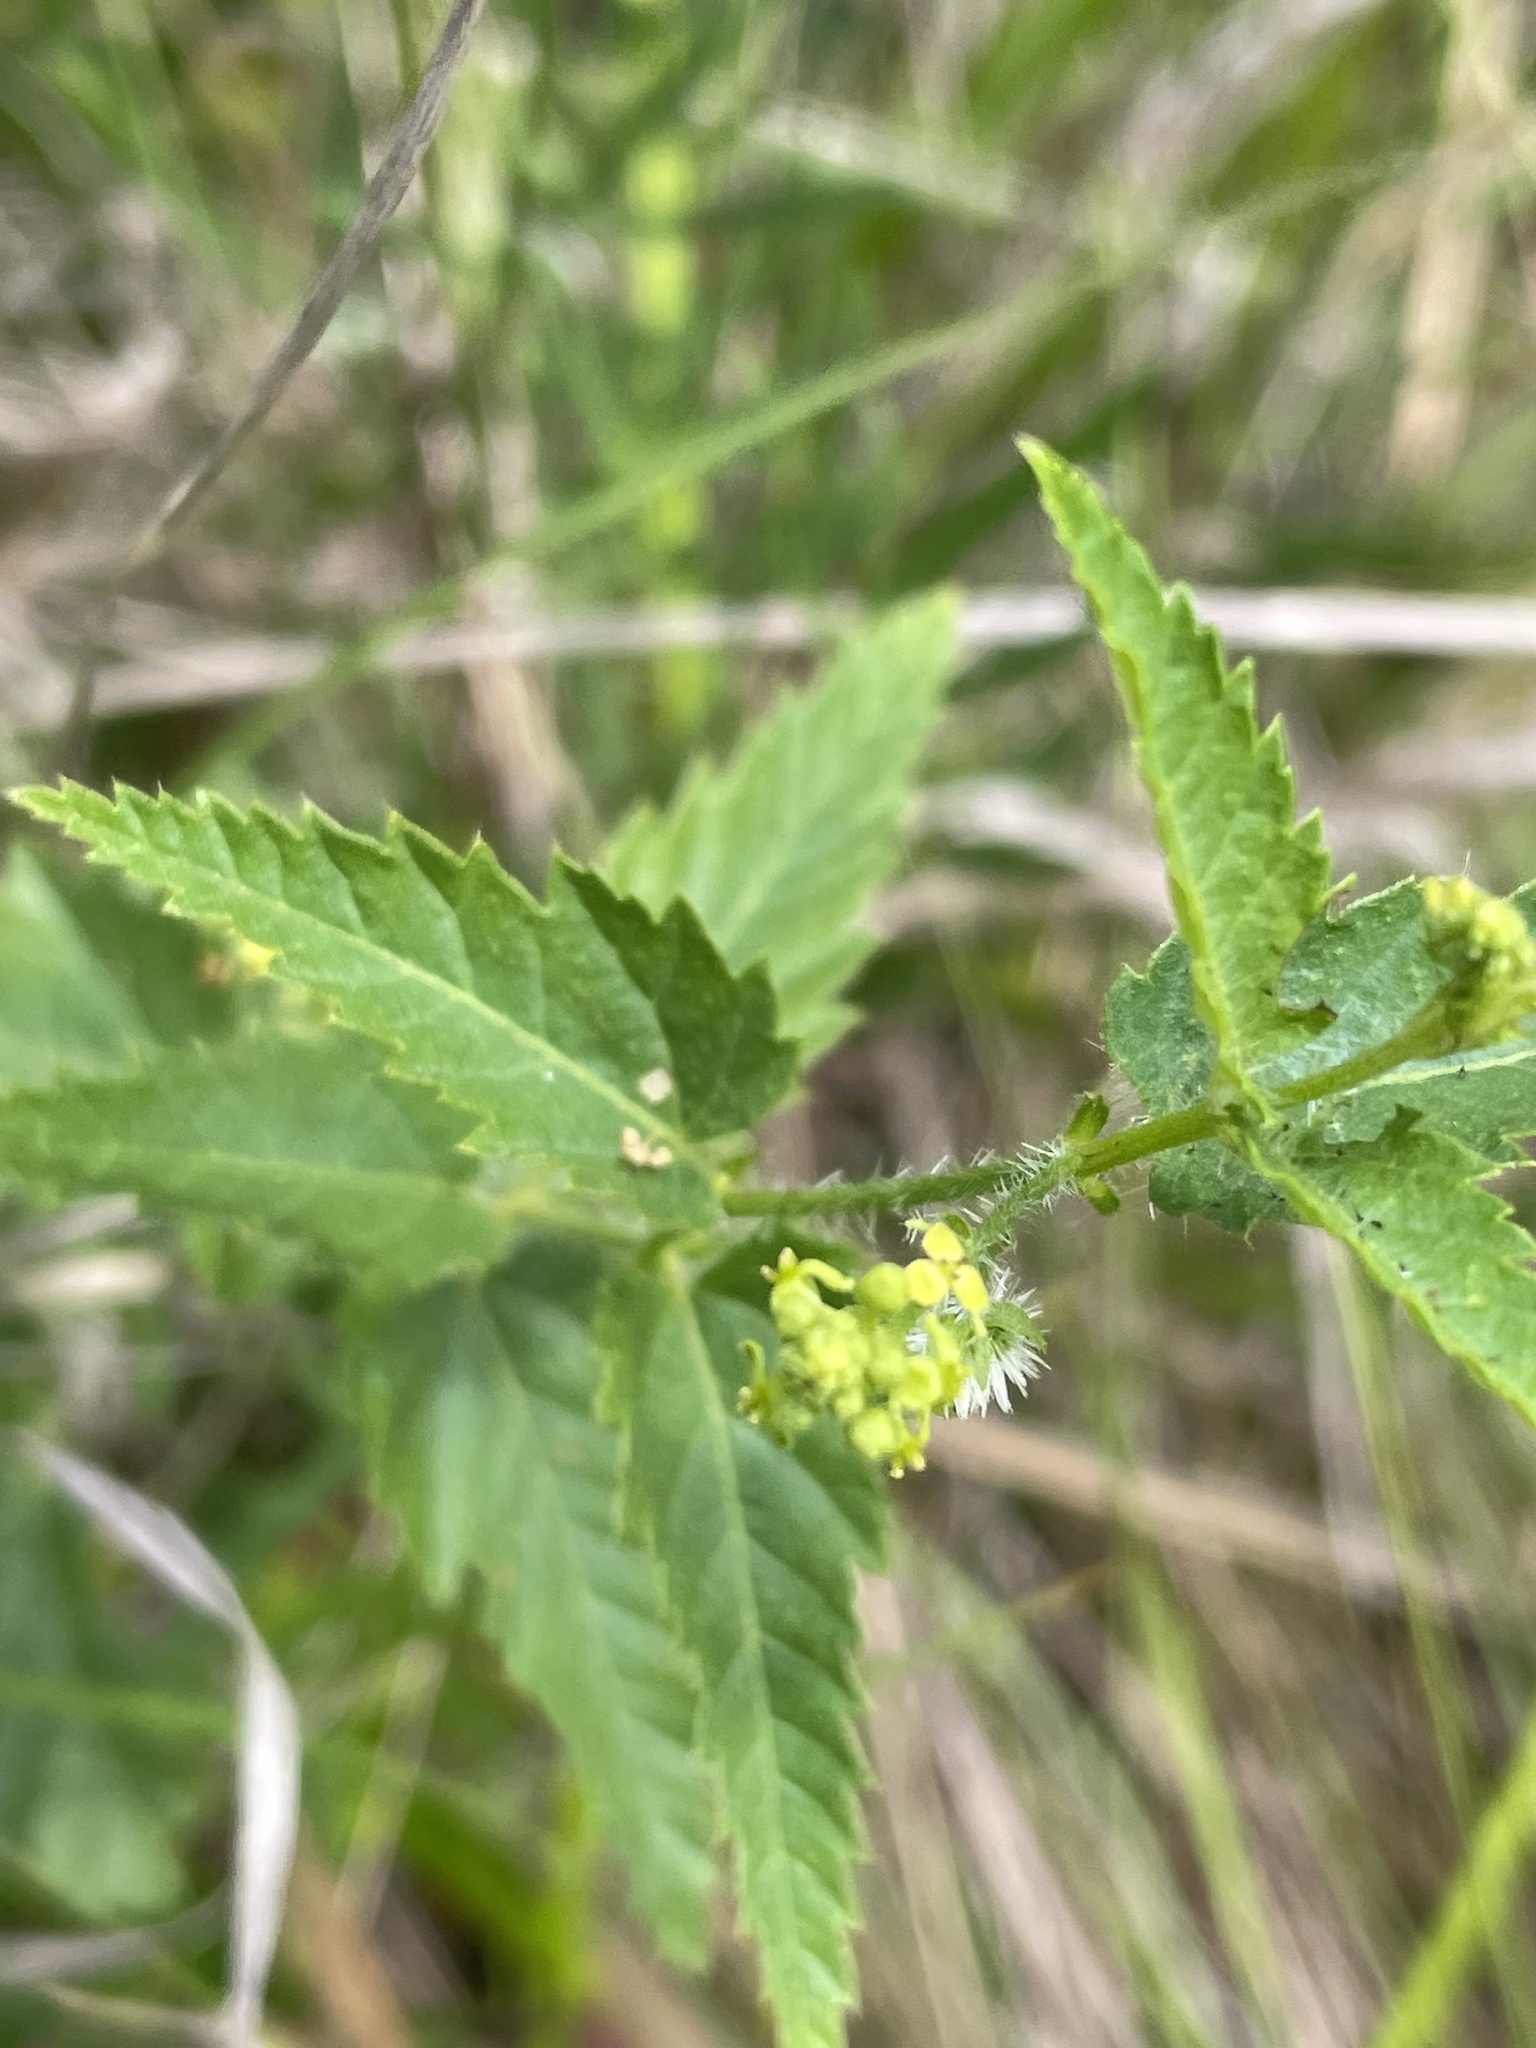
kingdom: Plantae
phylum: Tracheophyta
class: Magnoliopsida
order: Malpighiales
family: Euphorbiaceae
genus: Tragia
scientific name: Tragia urticifolia
